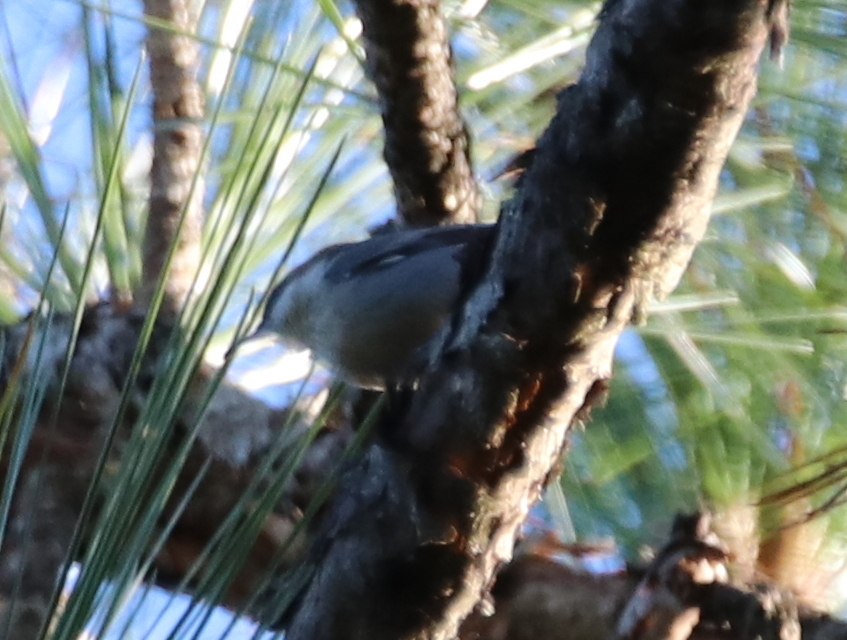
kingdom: Animalia
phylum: Chordata
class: Aves
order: Passeriformes
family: Sittidae
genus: Sitta
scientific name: Sitta pusilla
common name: Brown-headed nuthatch
